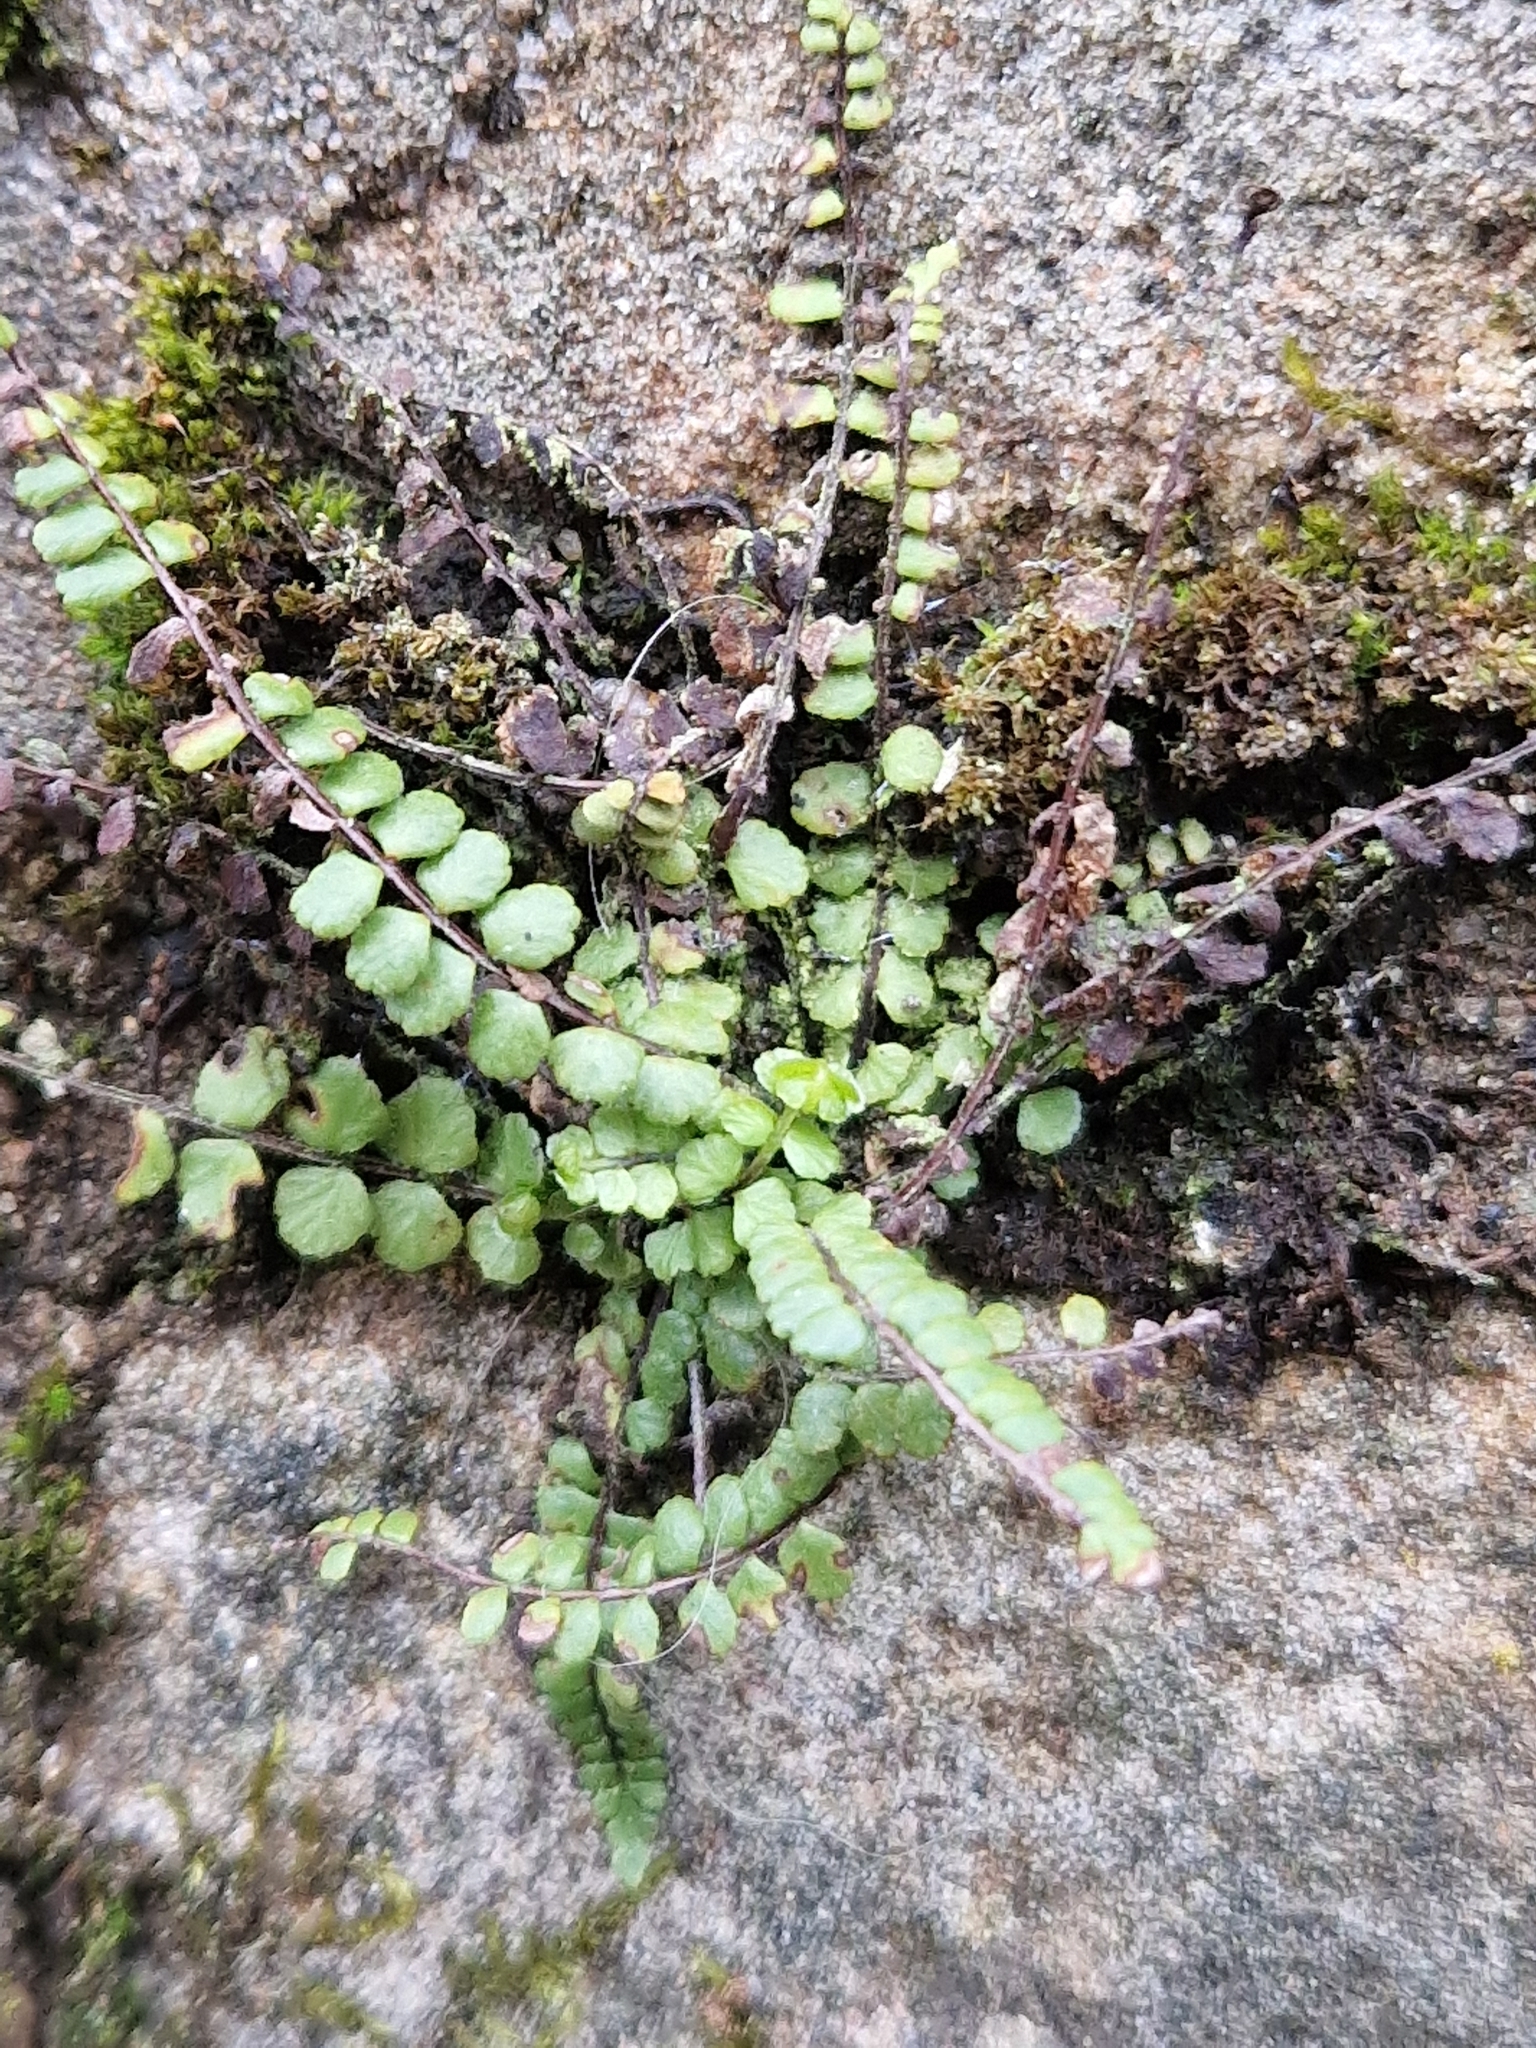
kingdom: Plantae
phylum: Tracheophyta
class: Polypodiopsida
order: Polypodiales
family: Aspleniaceae
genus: Asplenium
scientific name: Asplenium trichomanes
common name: Maidenhair spleenwort
